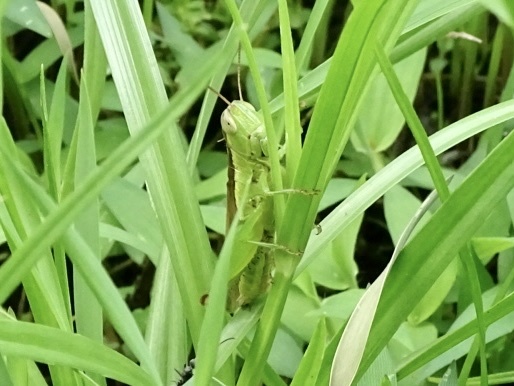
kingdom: Animalia
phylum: Arthropoda
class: Insecta
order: Orthoptera
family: Acrididae
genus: Oxya
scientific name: Oxya chinensis
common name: Small rice grasshopper
